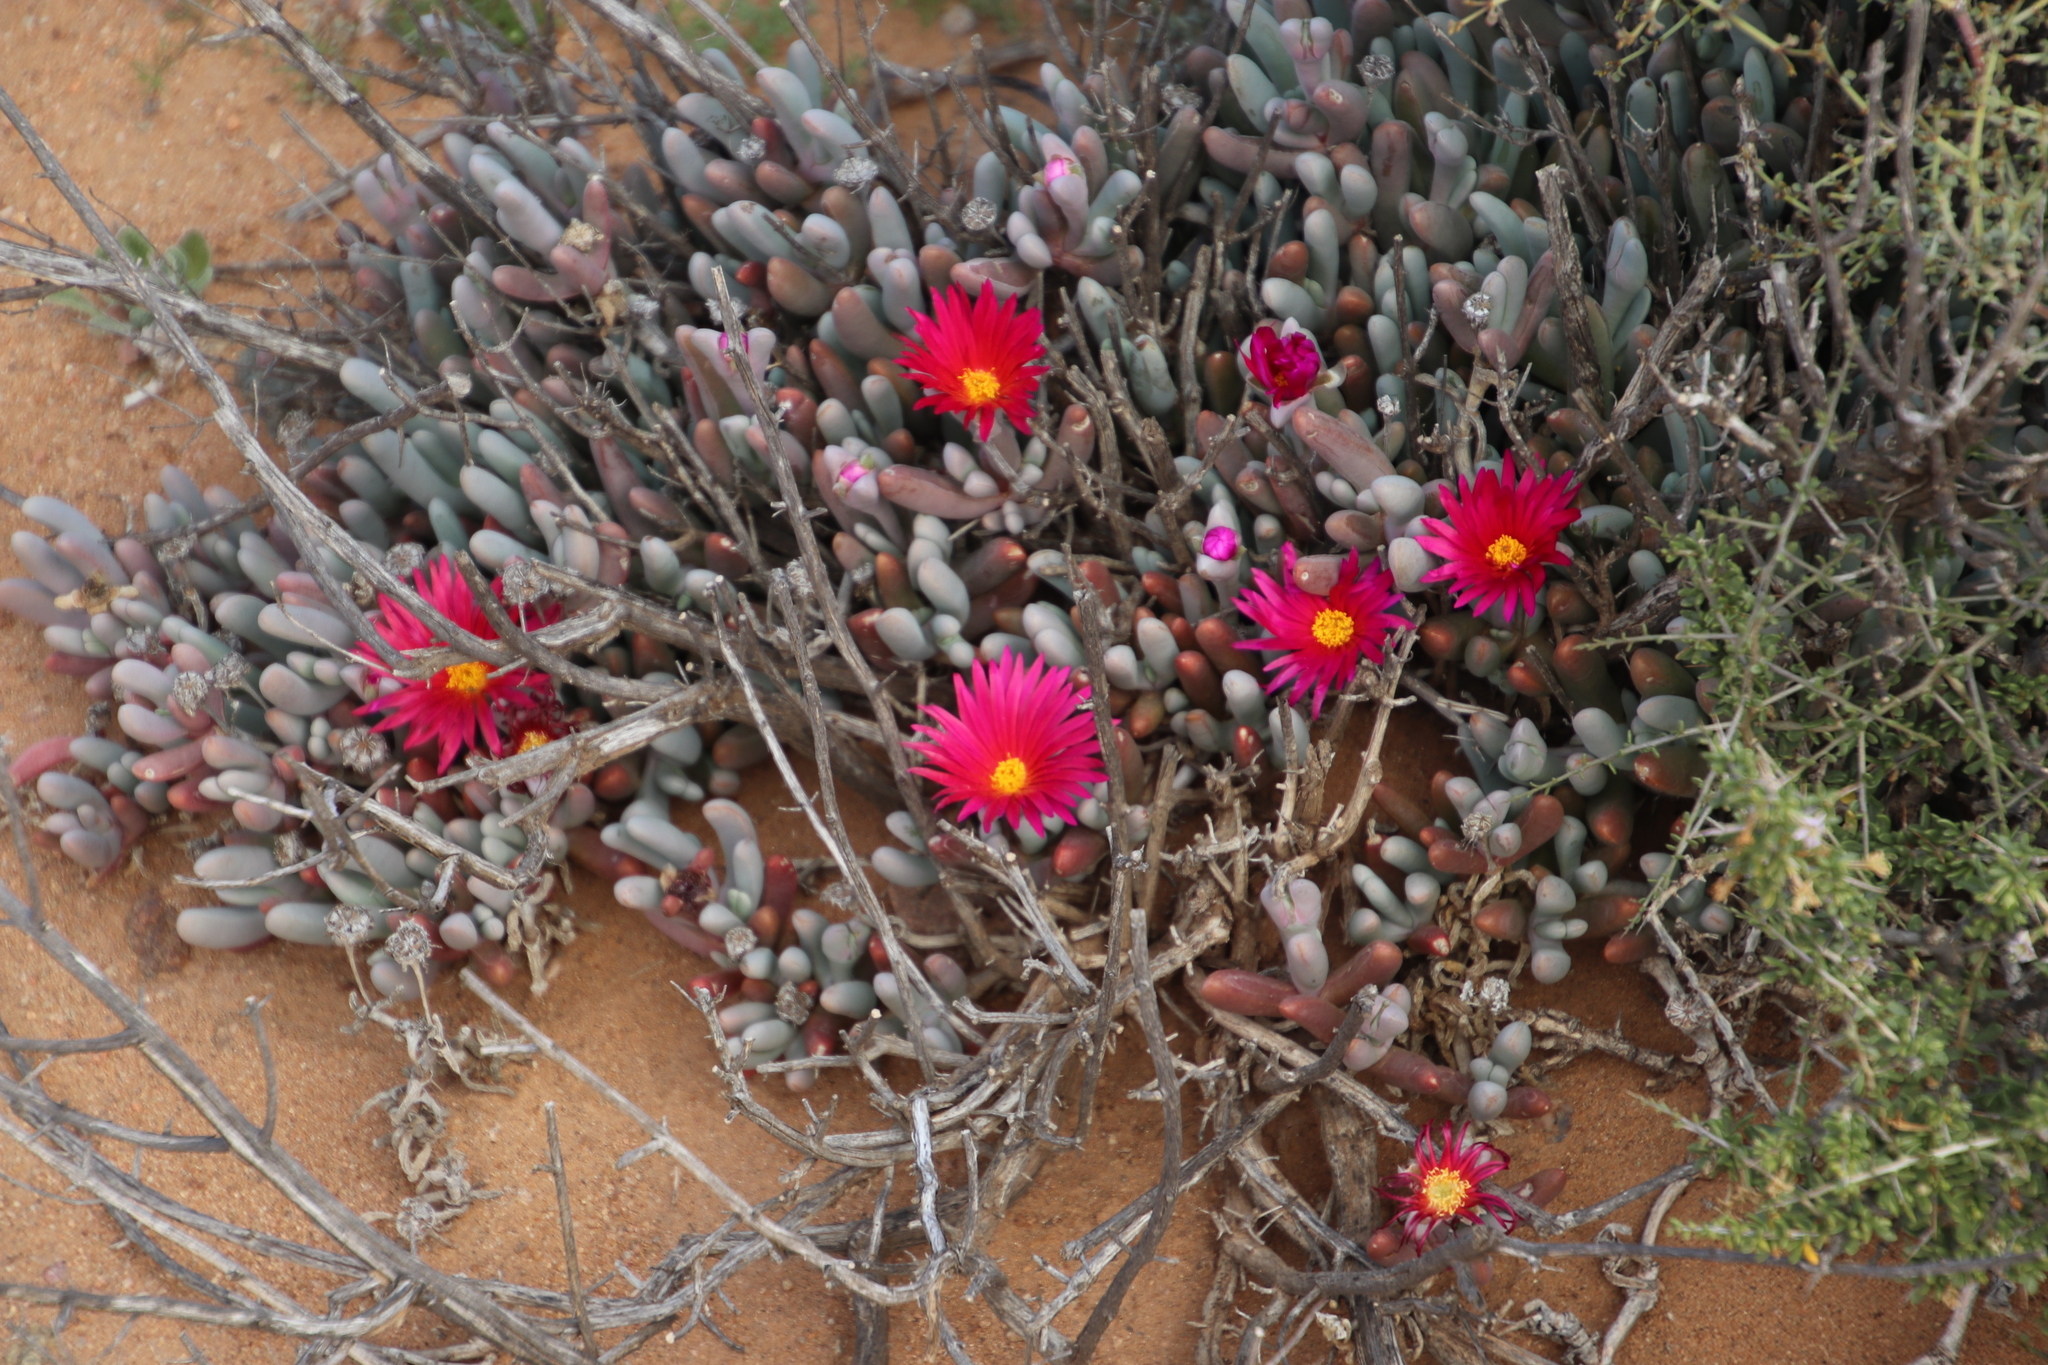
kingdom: Plantae
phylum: Tracheophyta
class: Magnoliopsida
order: Caryophyllales
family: Aizoaceae
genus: Malephora
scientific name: Malephora purpureocrocea
